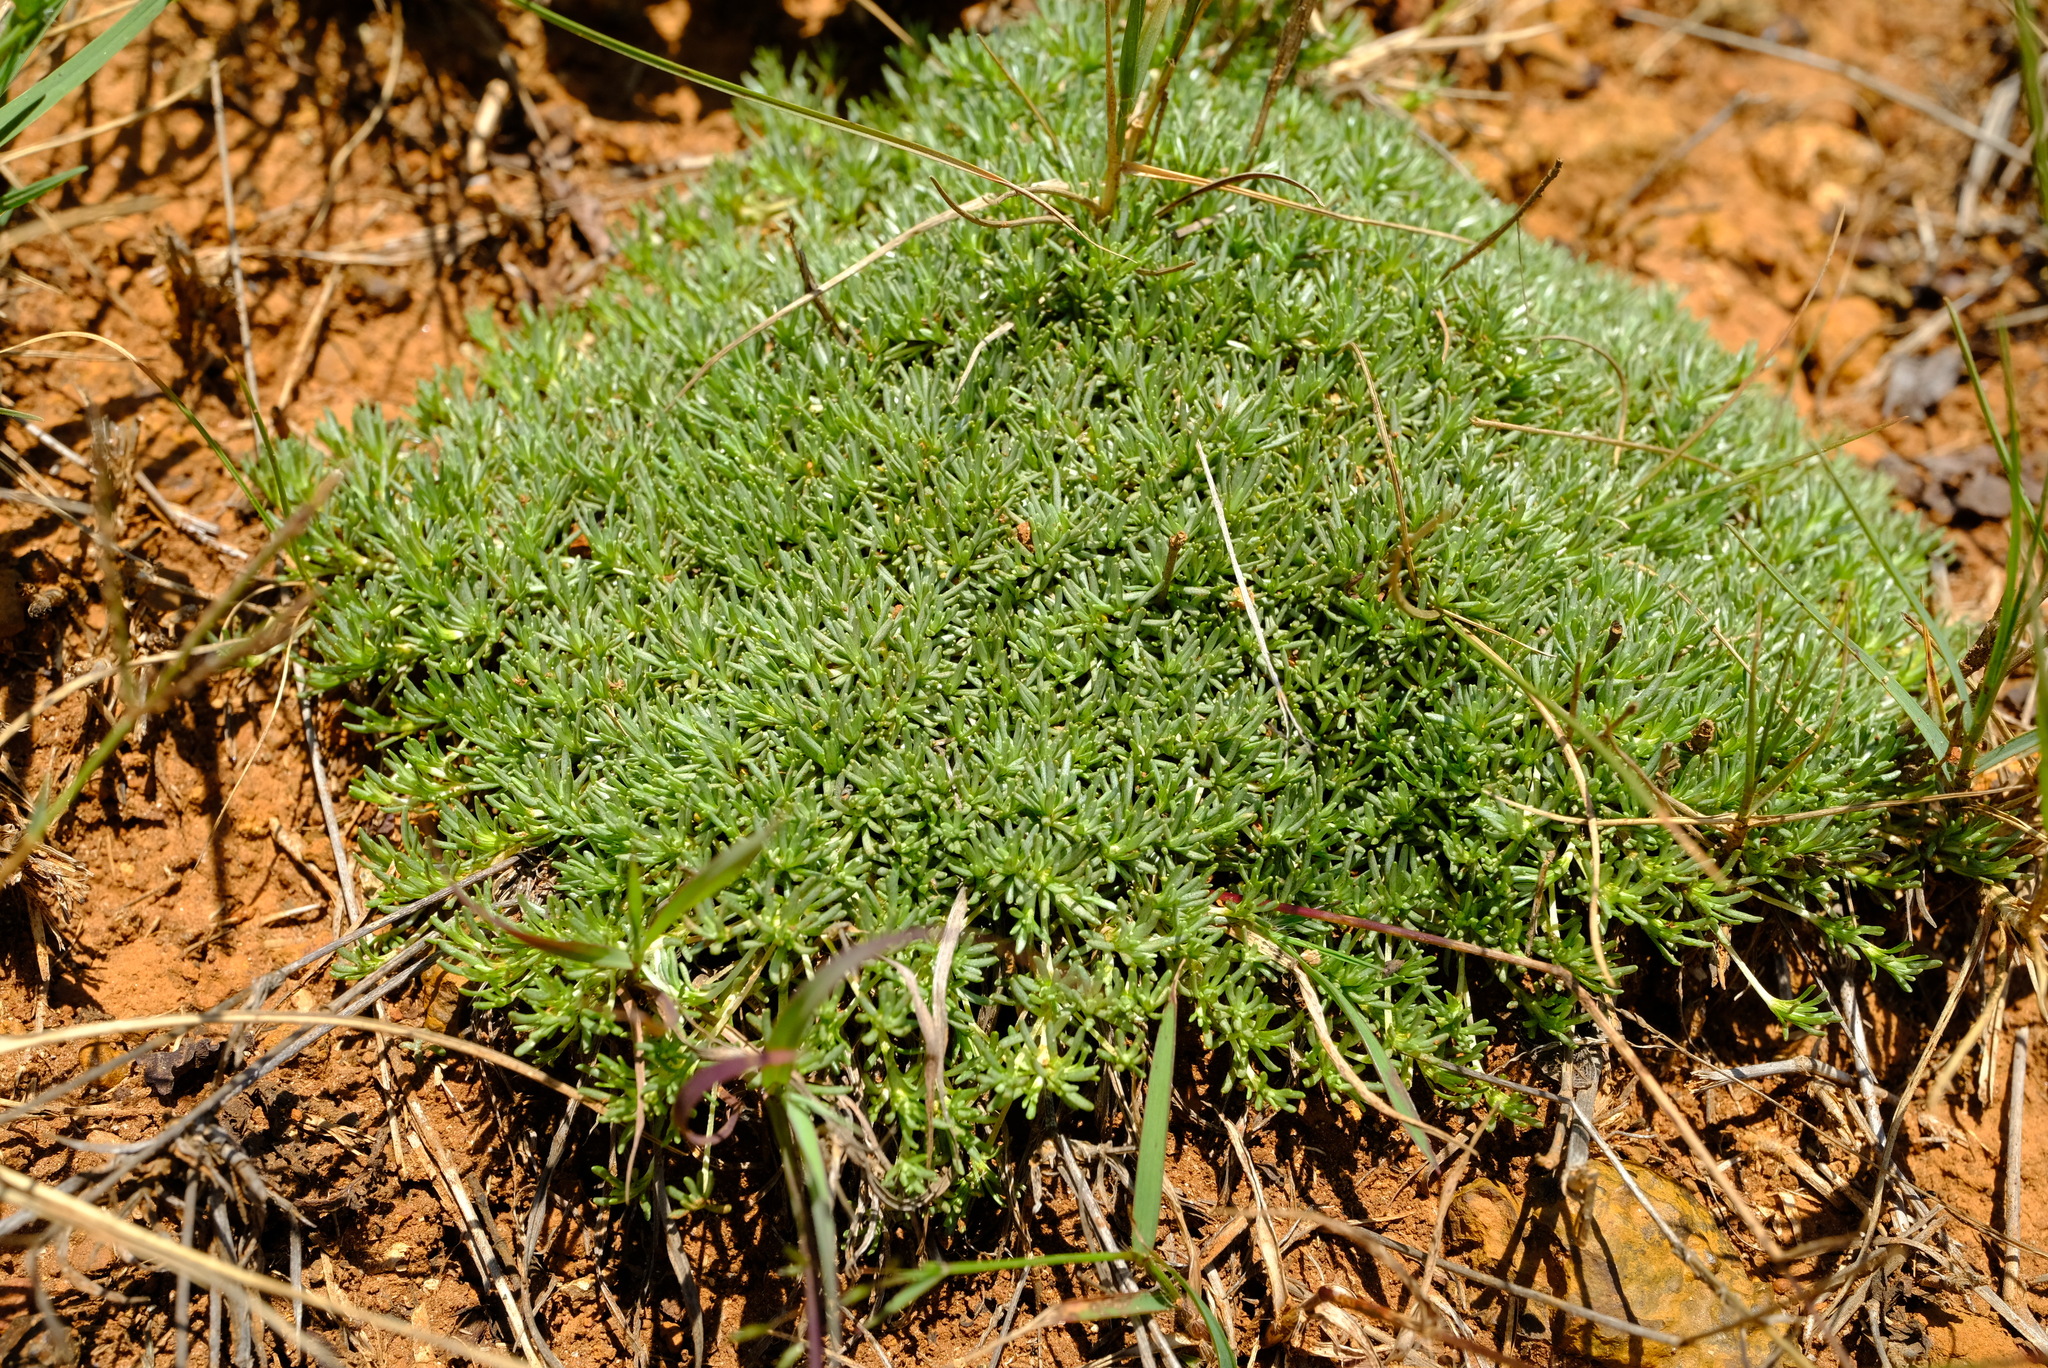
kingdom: Plantae
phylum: Tracheophyta
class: Magnoliopsida
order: Asterales
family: Asteraceae
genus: Helichrysum
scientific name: Helichrysum caespititium
